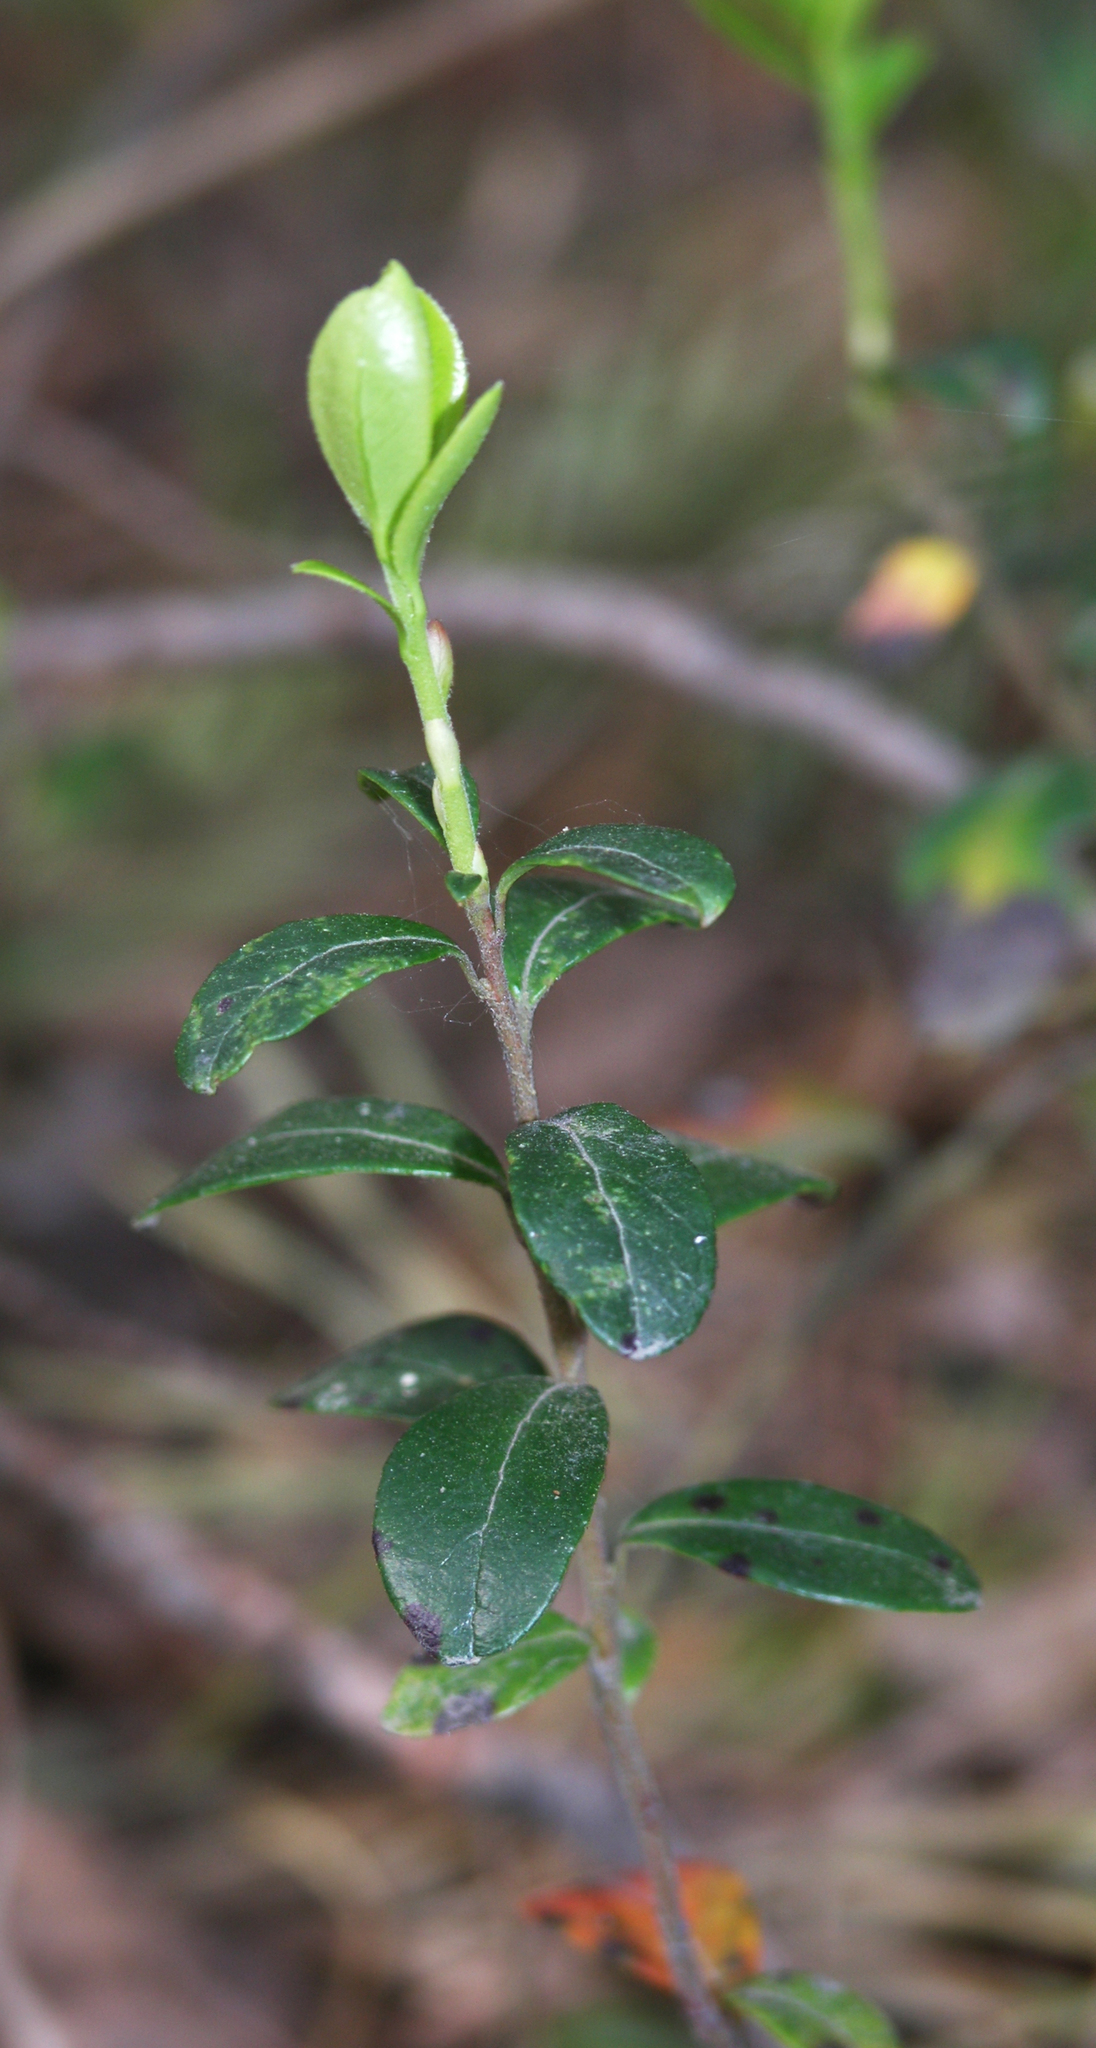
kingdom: Plantae
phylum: Tracheophyta
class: Magnoliopsida
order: Ericales
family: Ericaceae
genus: Vaccinium
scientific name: Vaccinium vitis-idaea
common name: Cowberry
